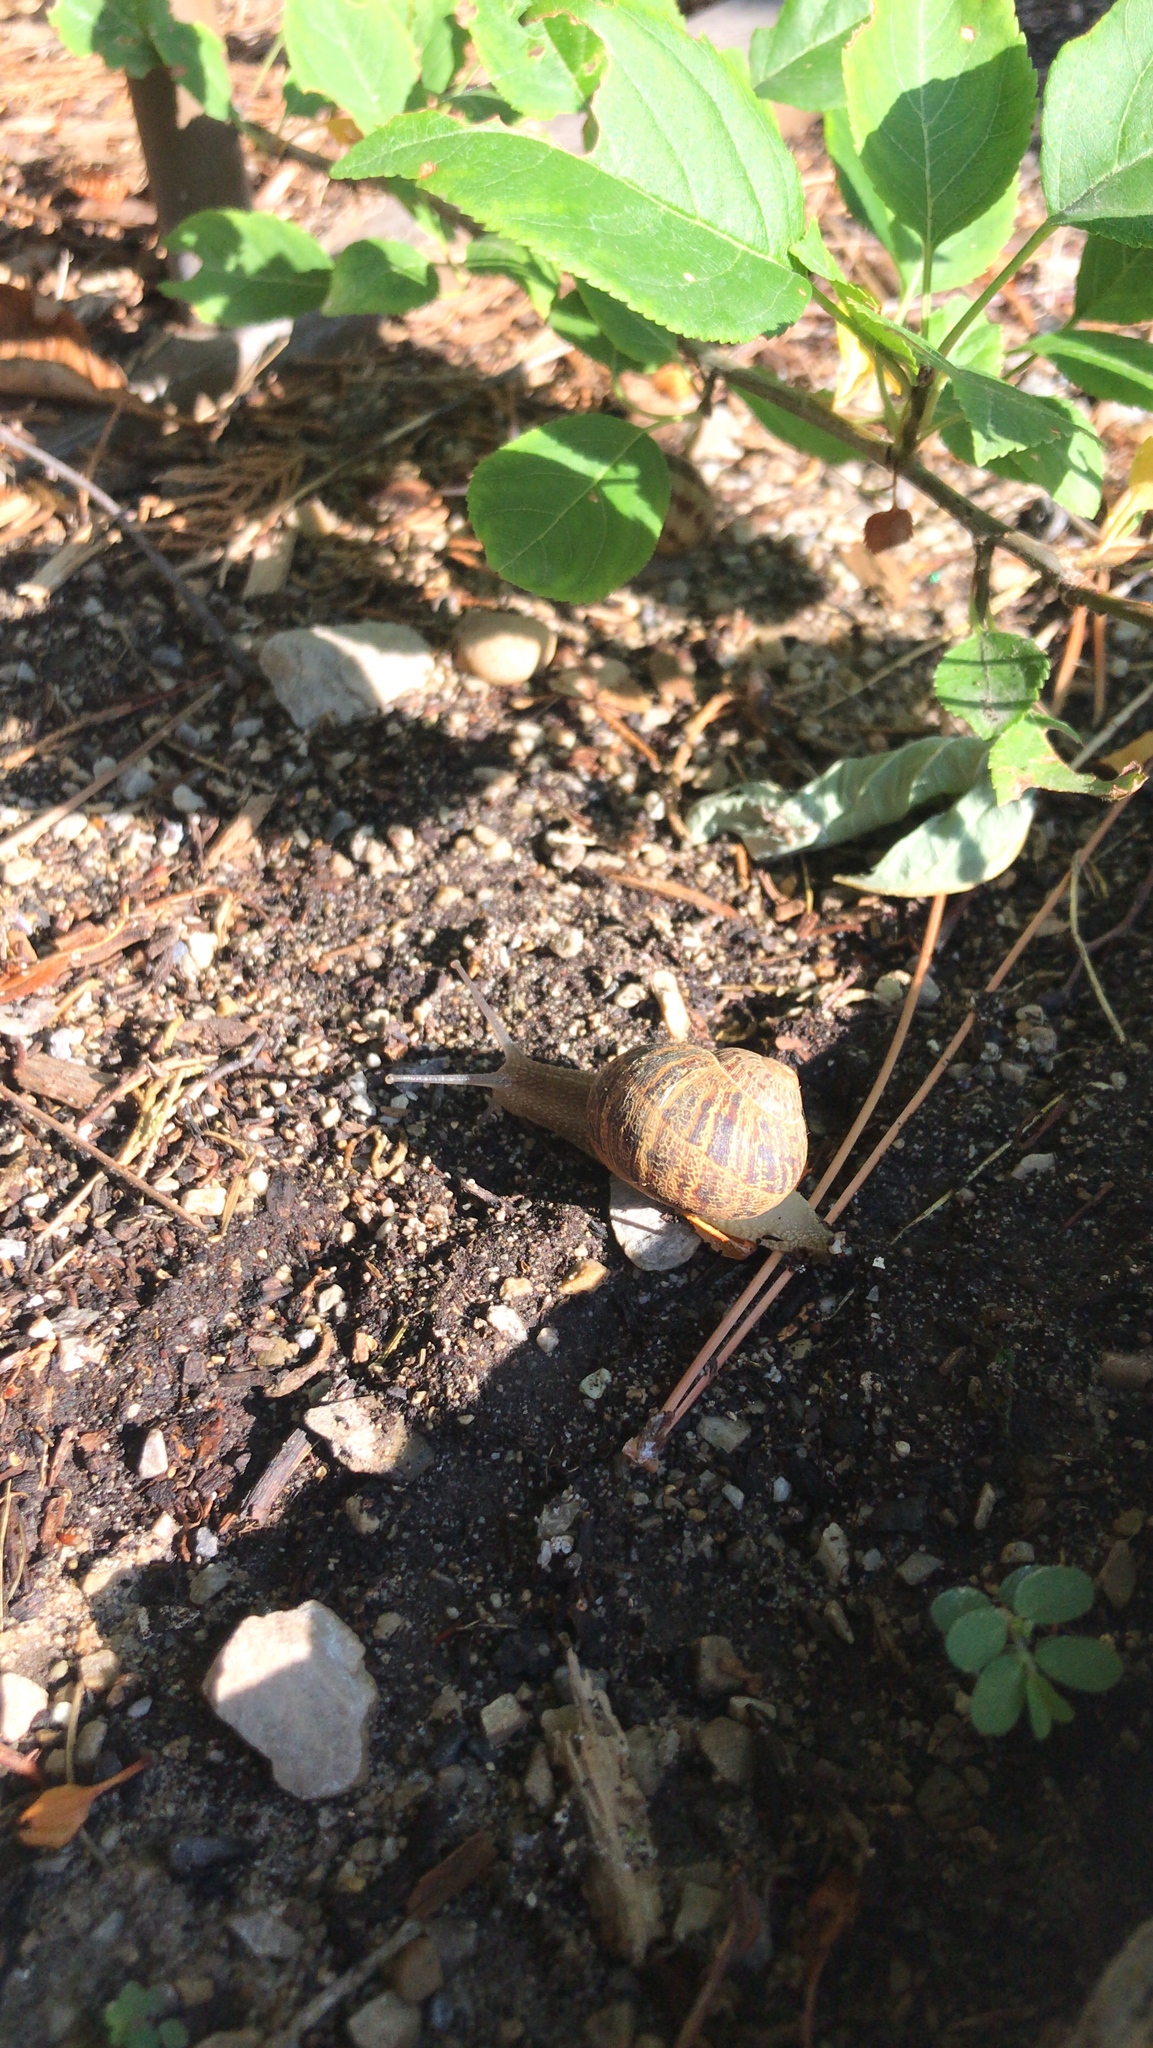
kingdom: Animalia
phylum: Mollusca
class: Gastropoda
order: Stylommatophora
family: Helicidae
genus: Cornu
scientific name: Cornu aspersum
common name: Brown garden snail
